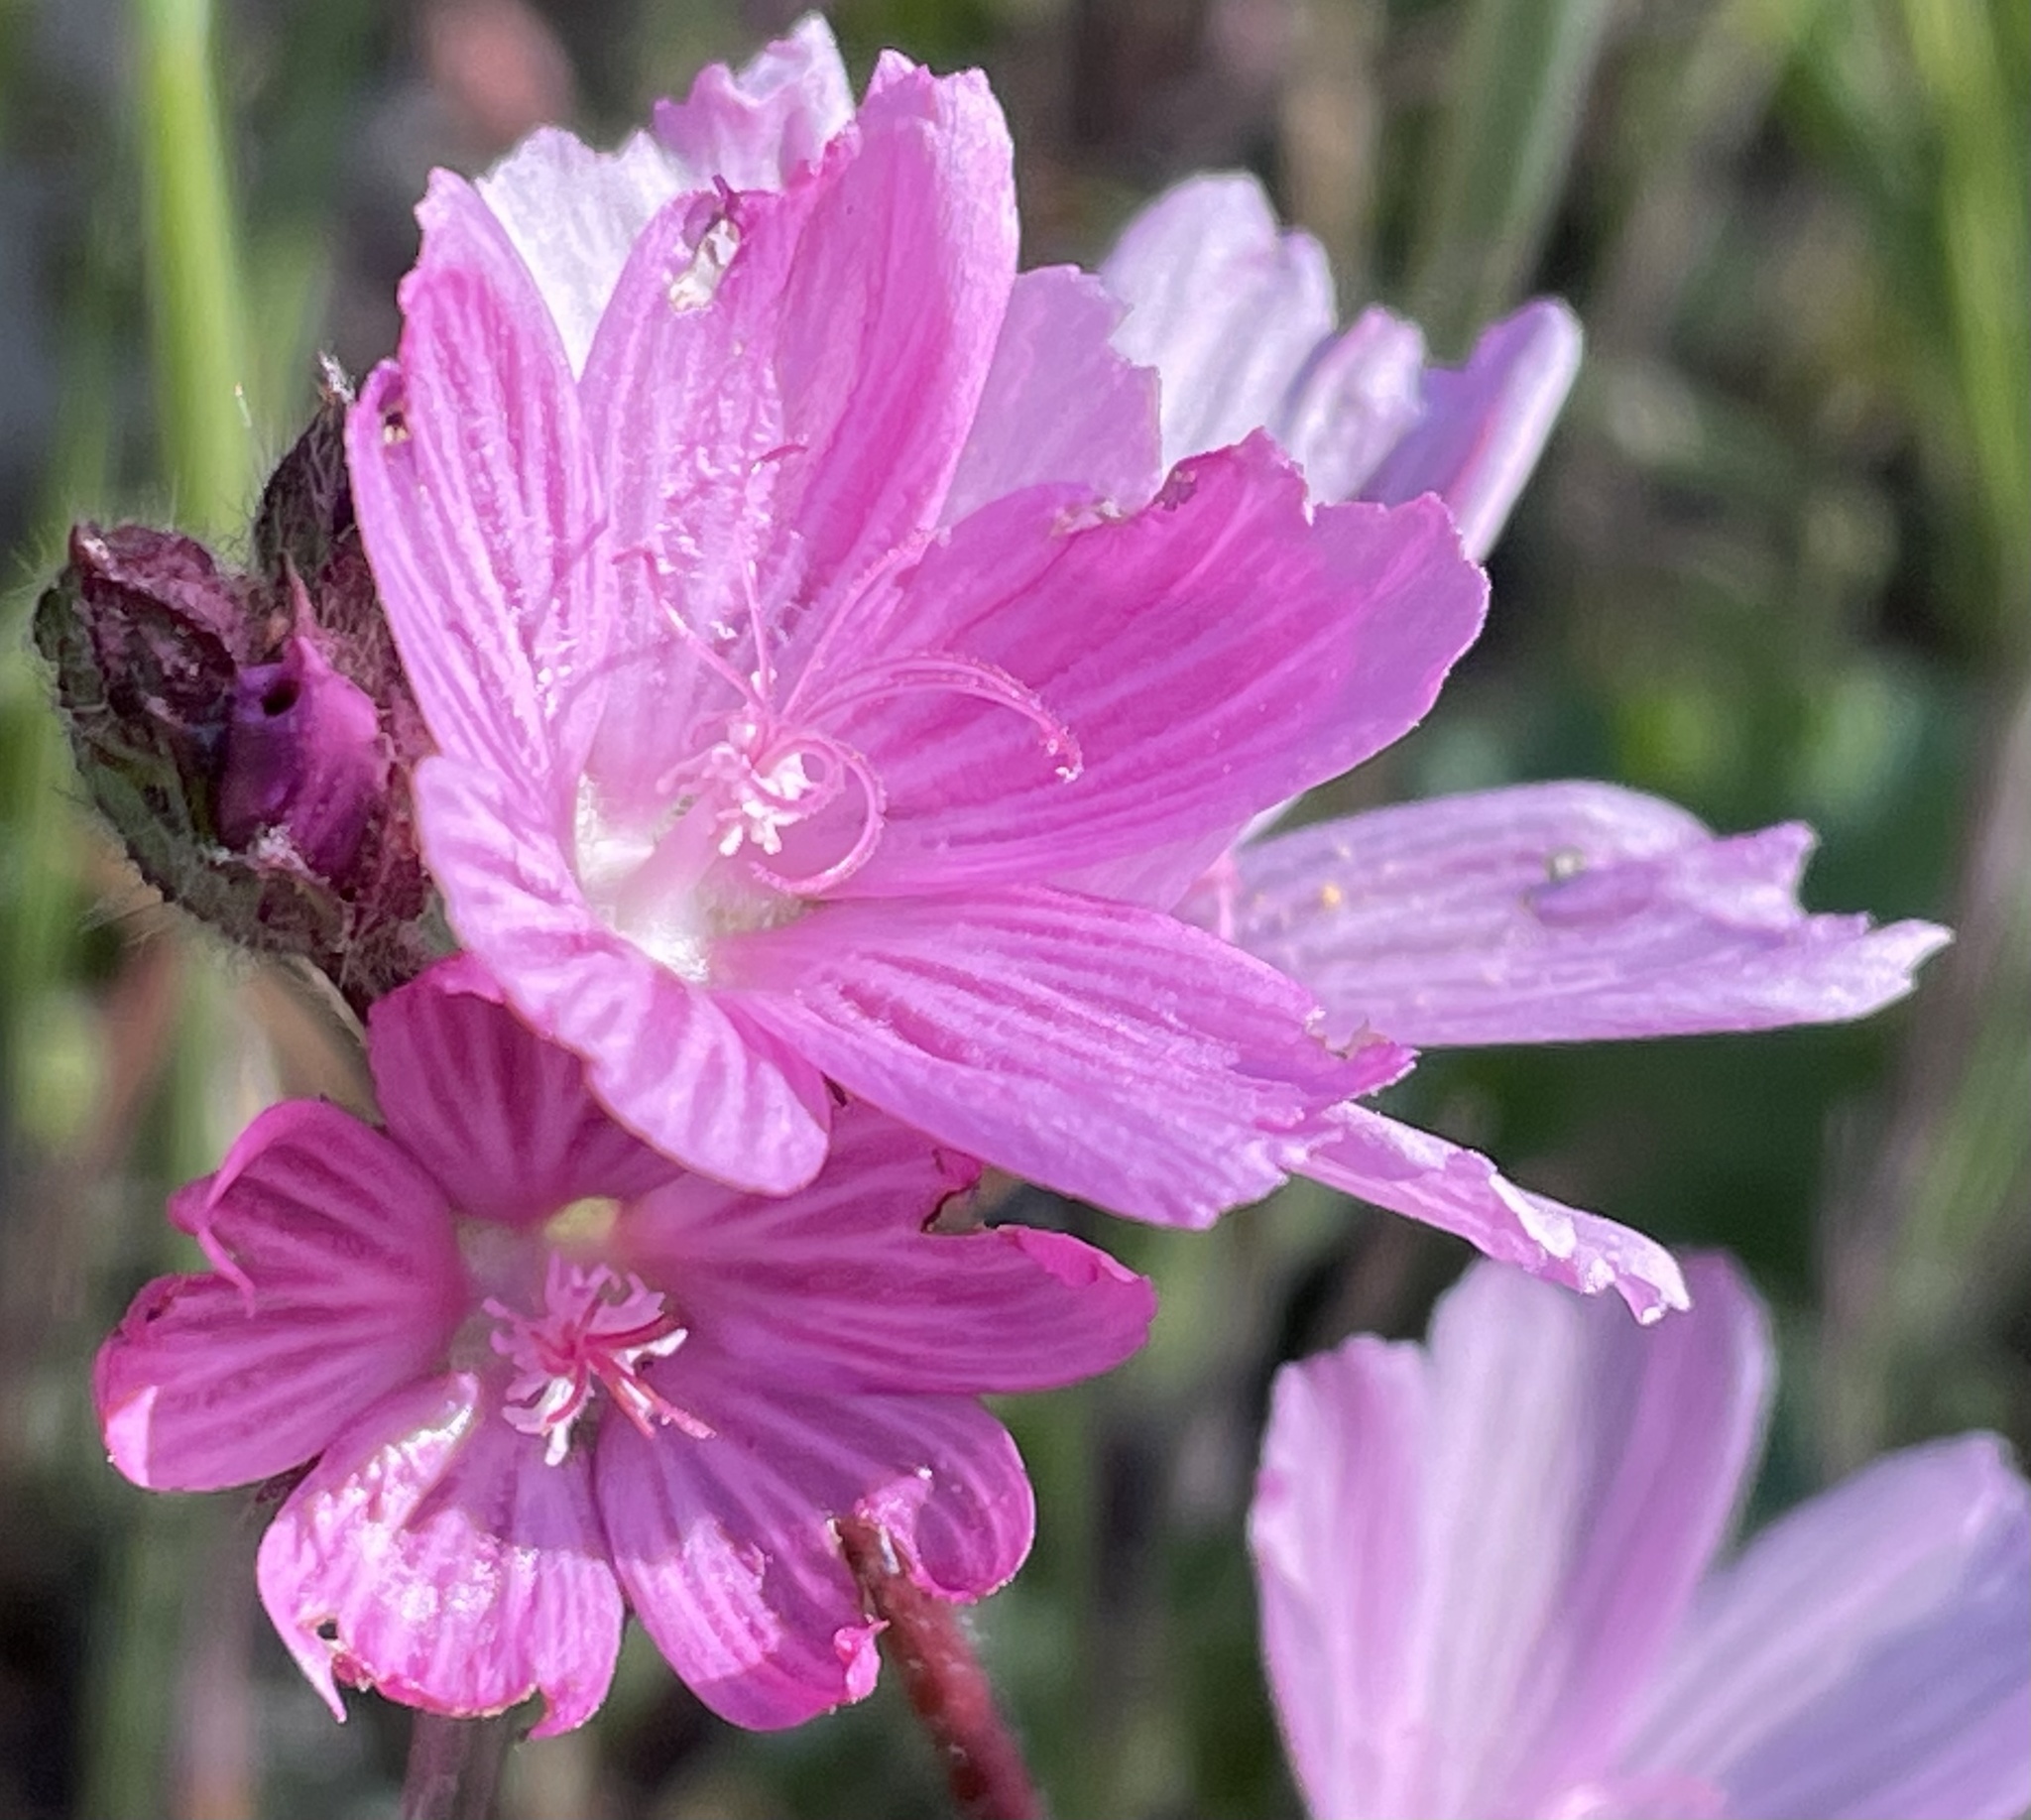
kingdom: Plantae
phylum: Tracheophyta
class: Magnoliopsida
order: Malvales
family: Malvaceae
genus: Sidalcea
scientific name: Sidalcea malviflora
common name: Greek mallow
